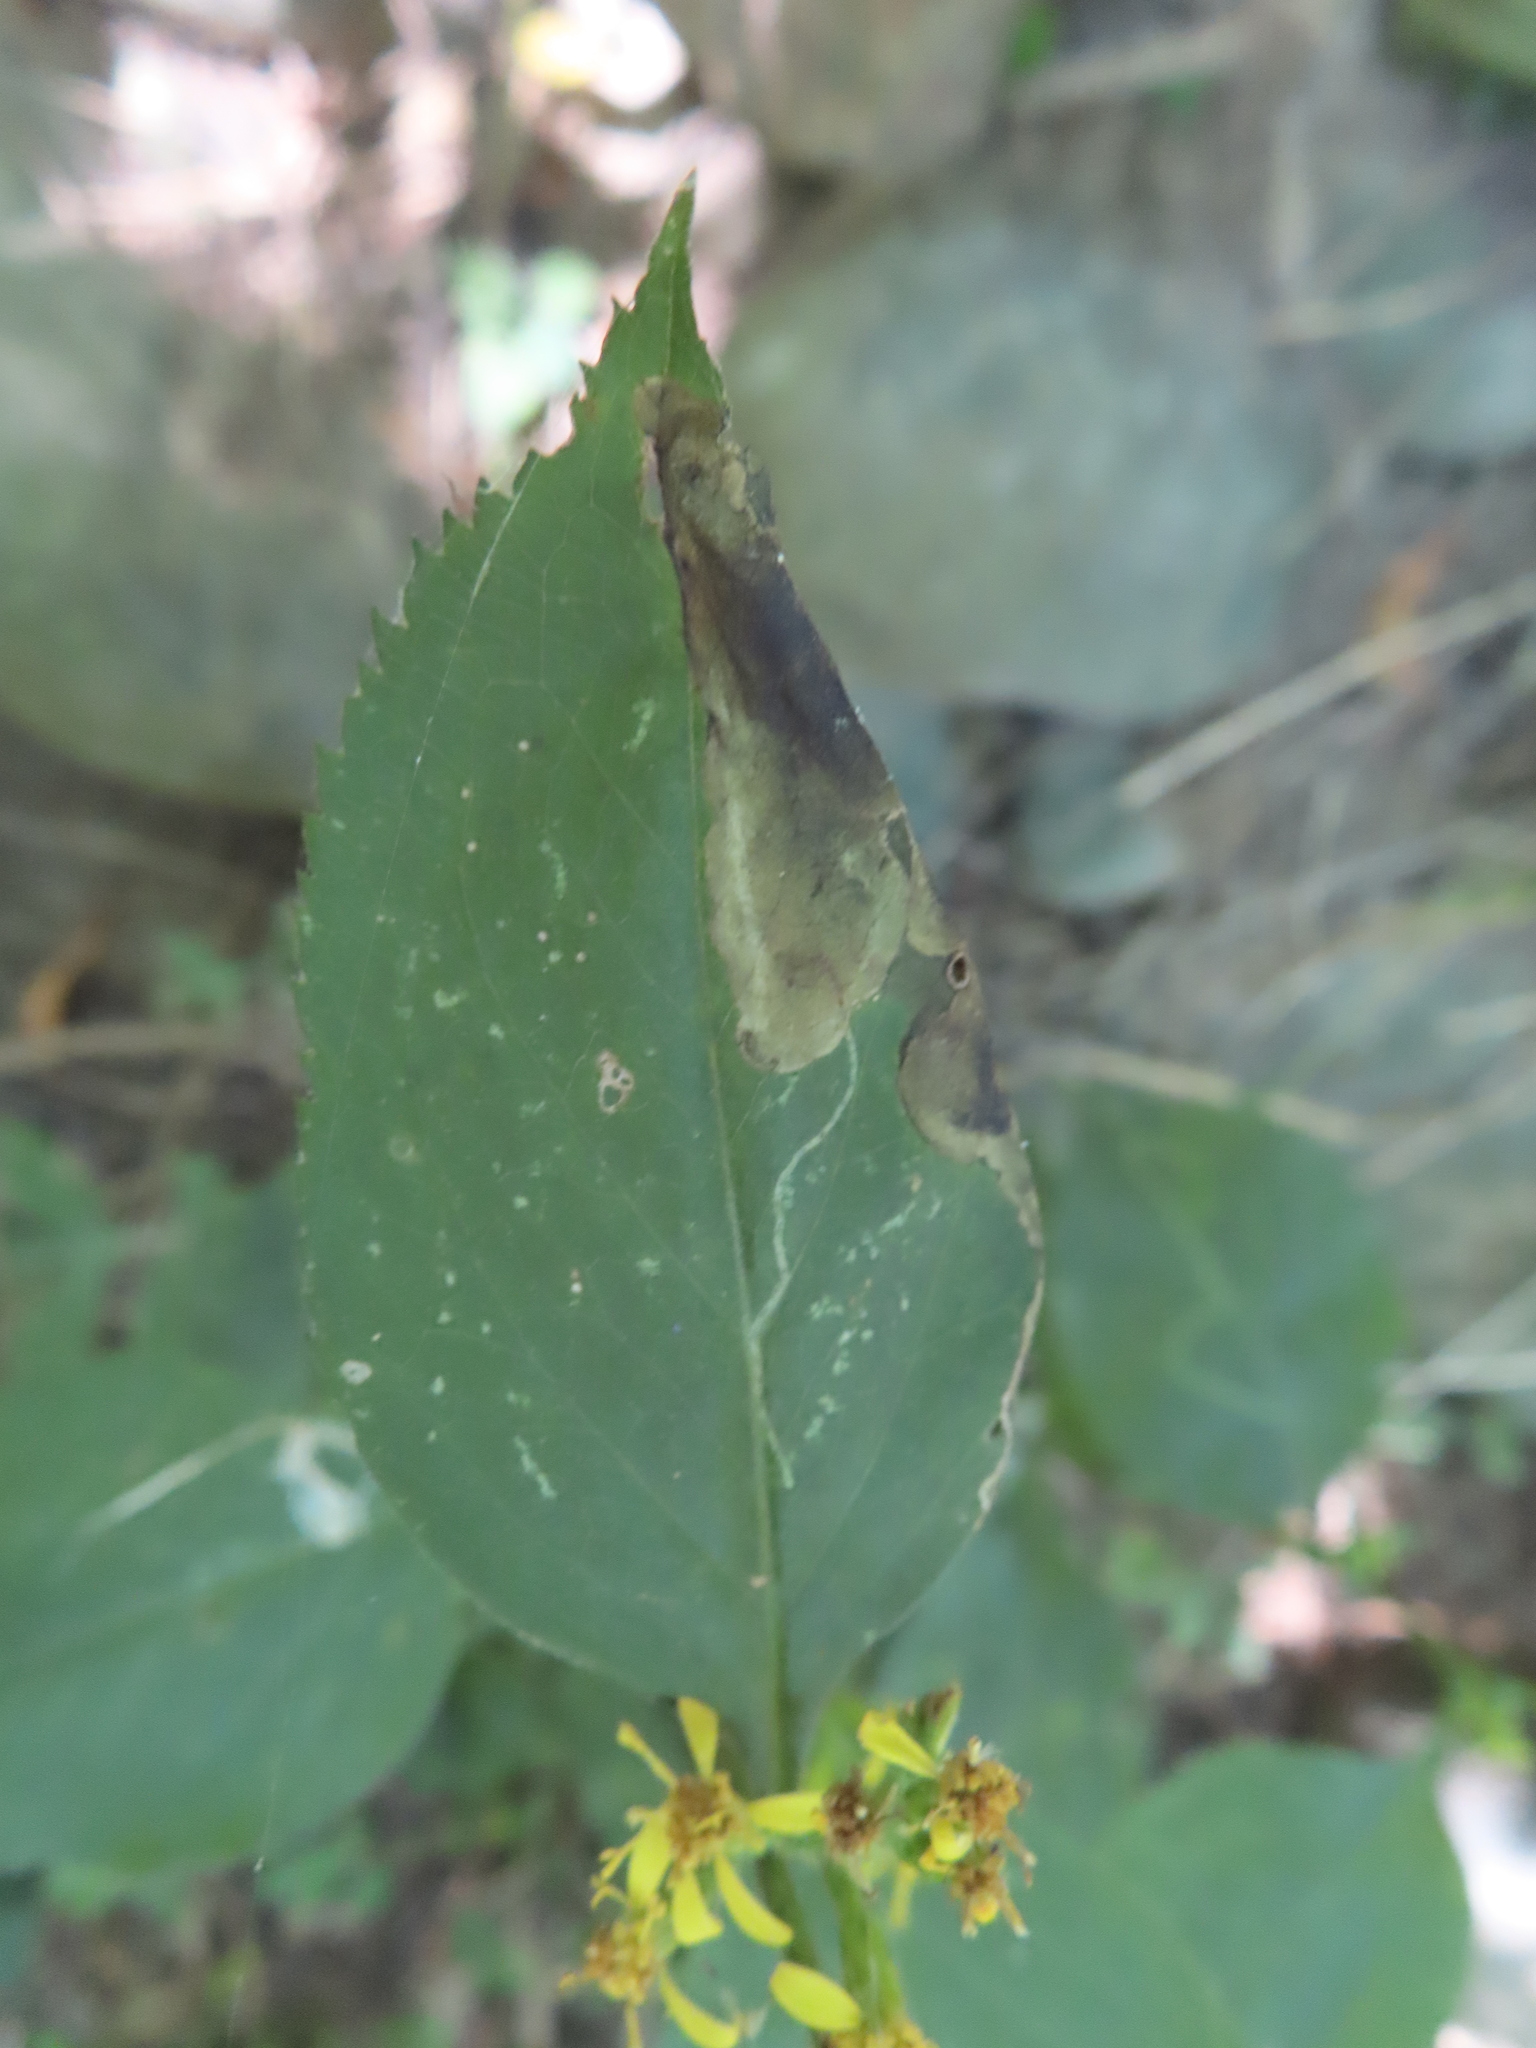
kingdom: Animalia
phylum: Arthropoda
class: Insecta
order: Diptera
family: Agromyzidae
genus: Nemorimyza
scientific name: Nemorimyza posticata
